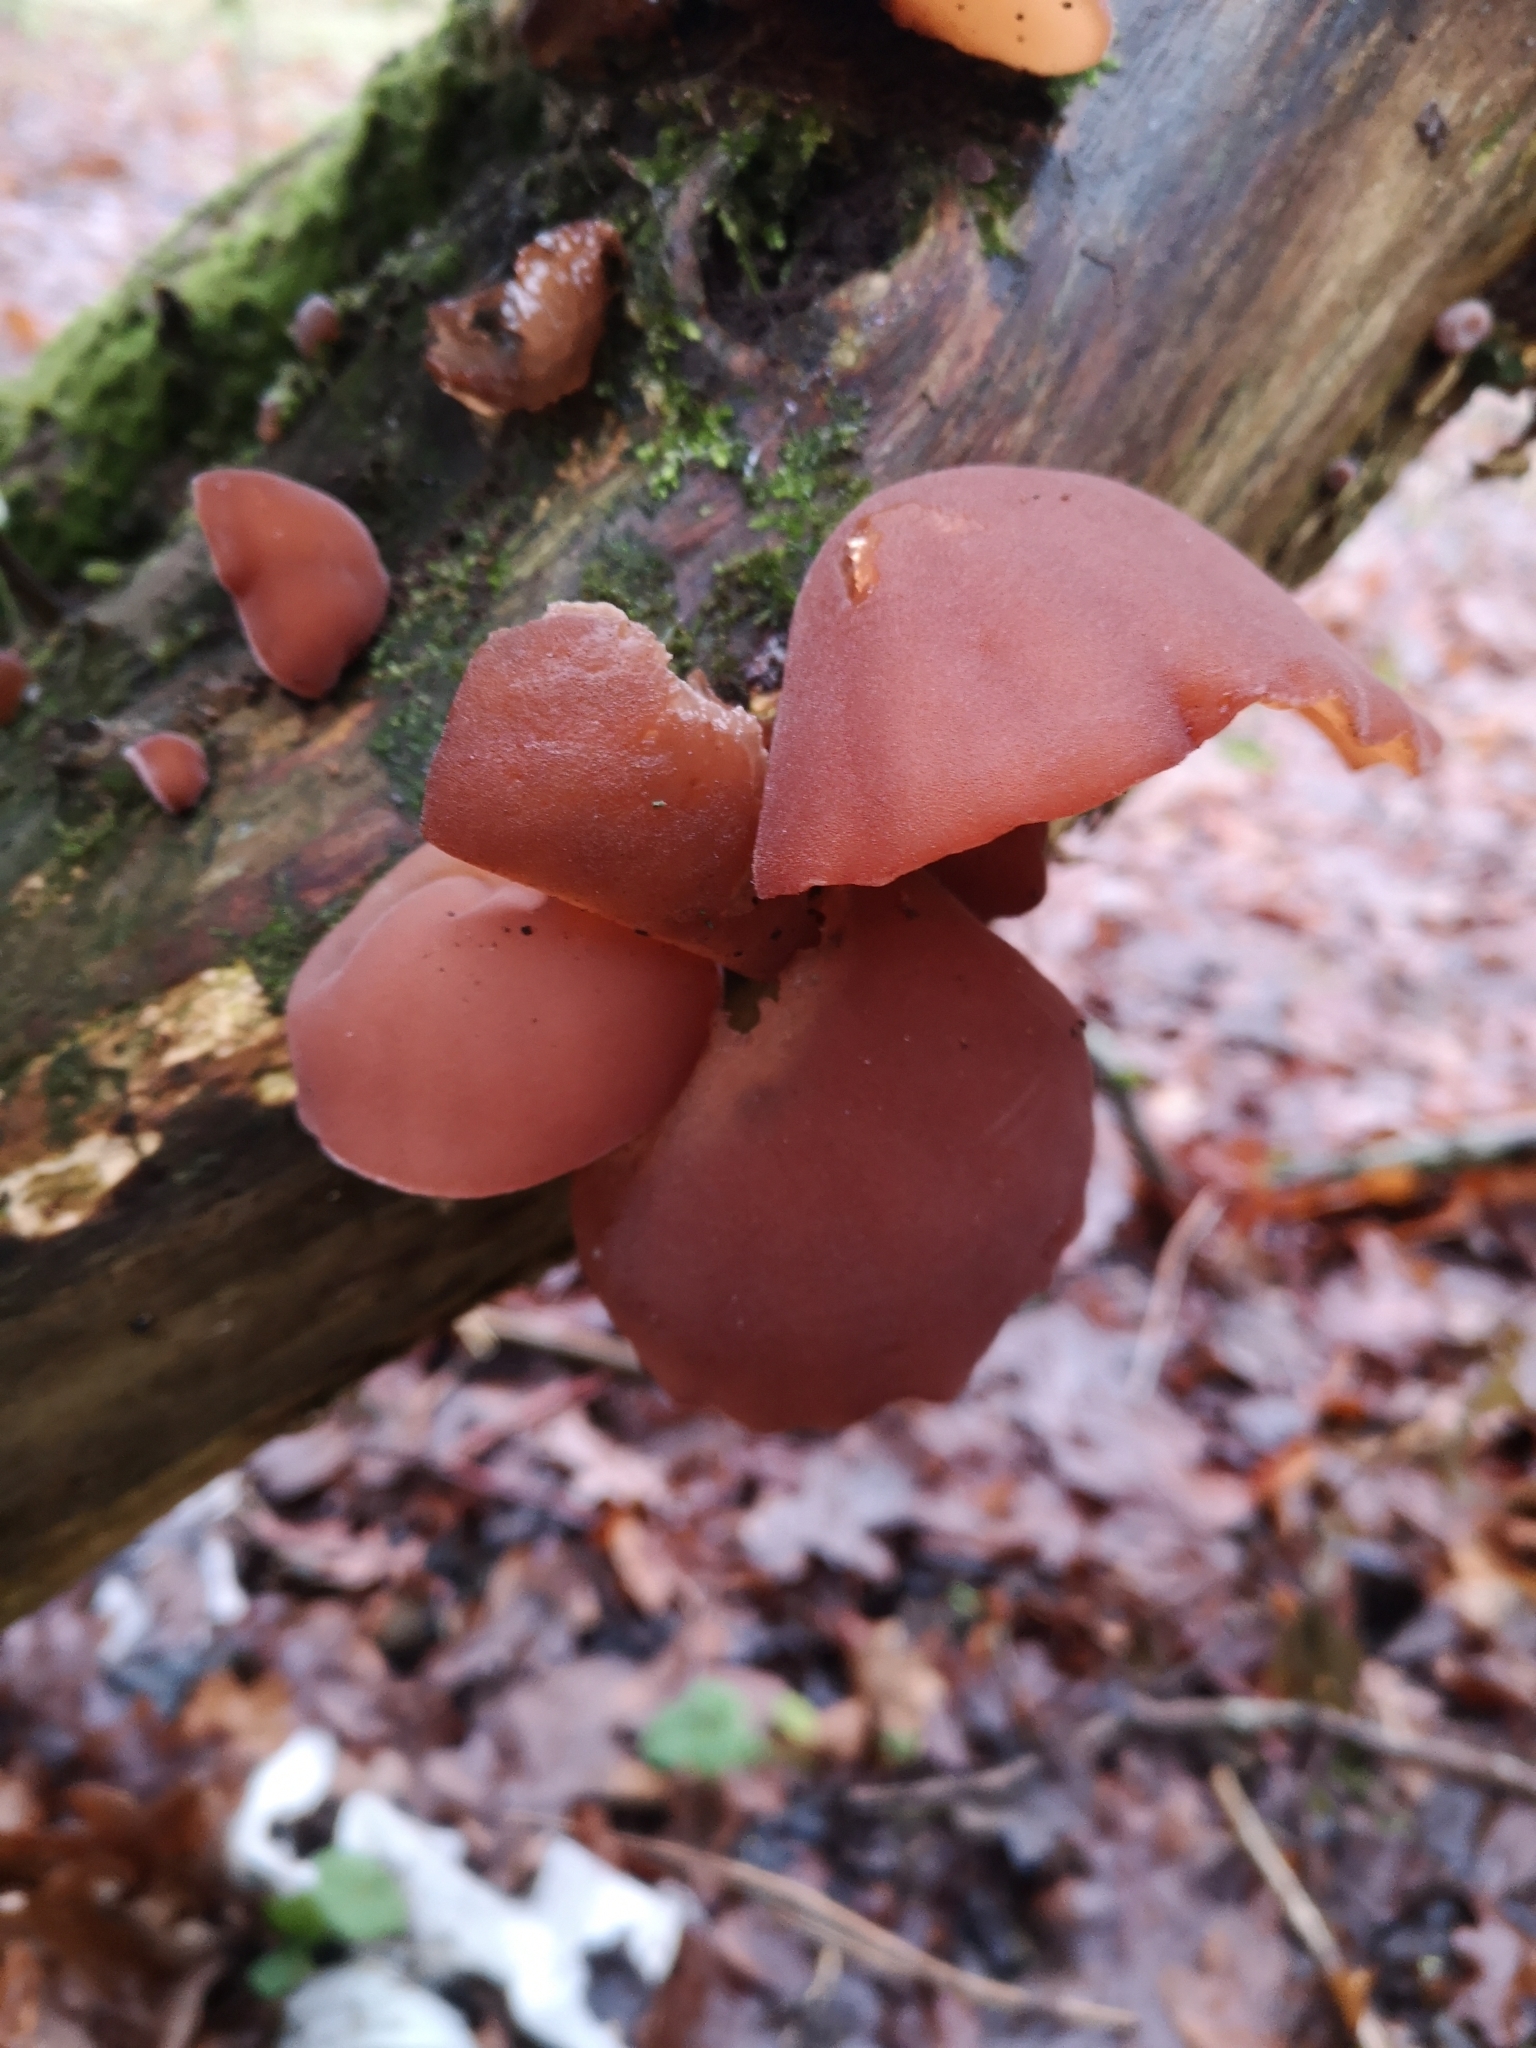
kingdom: Fungi
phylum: Basidiomycota
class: Agaricomycetes
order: Auriculariales
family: Auriculariaceae
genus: Auricularia
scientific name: Auricularia auricula-judae
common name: Jelly ear
